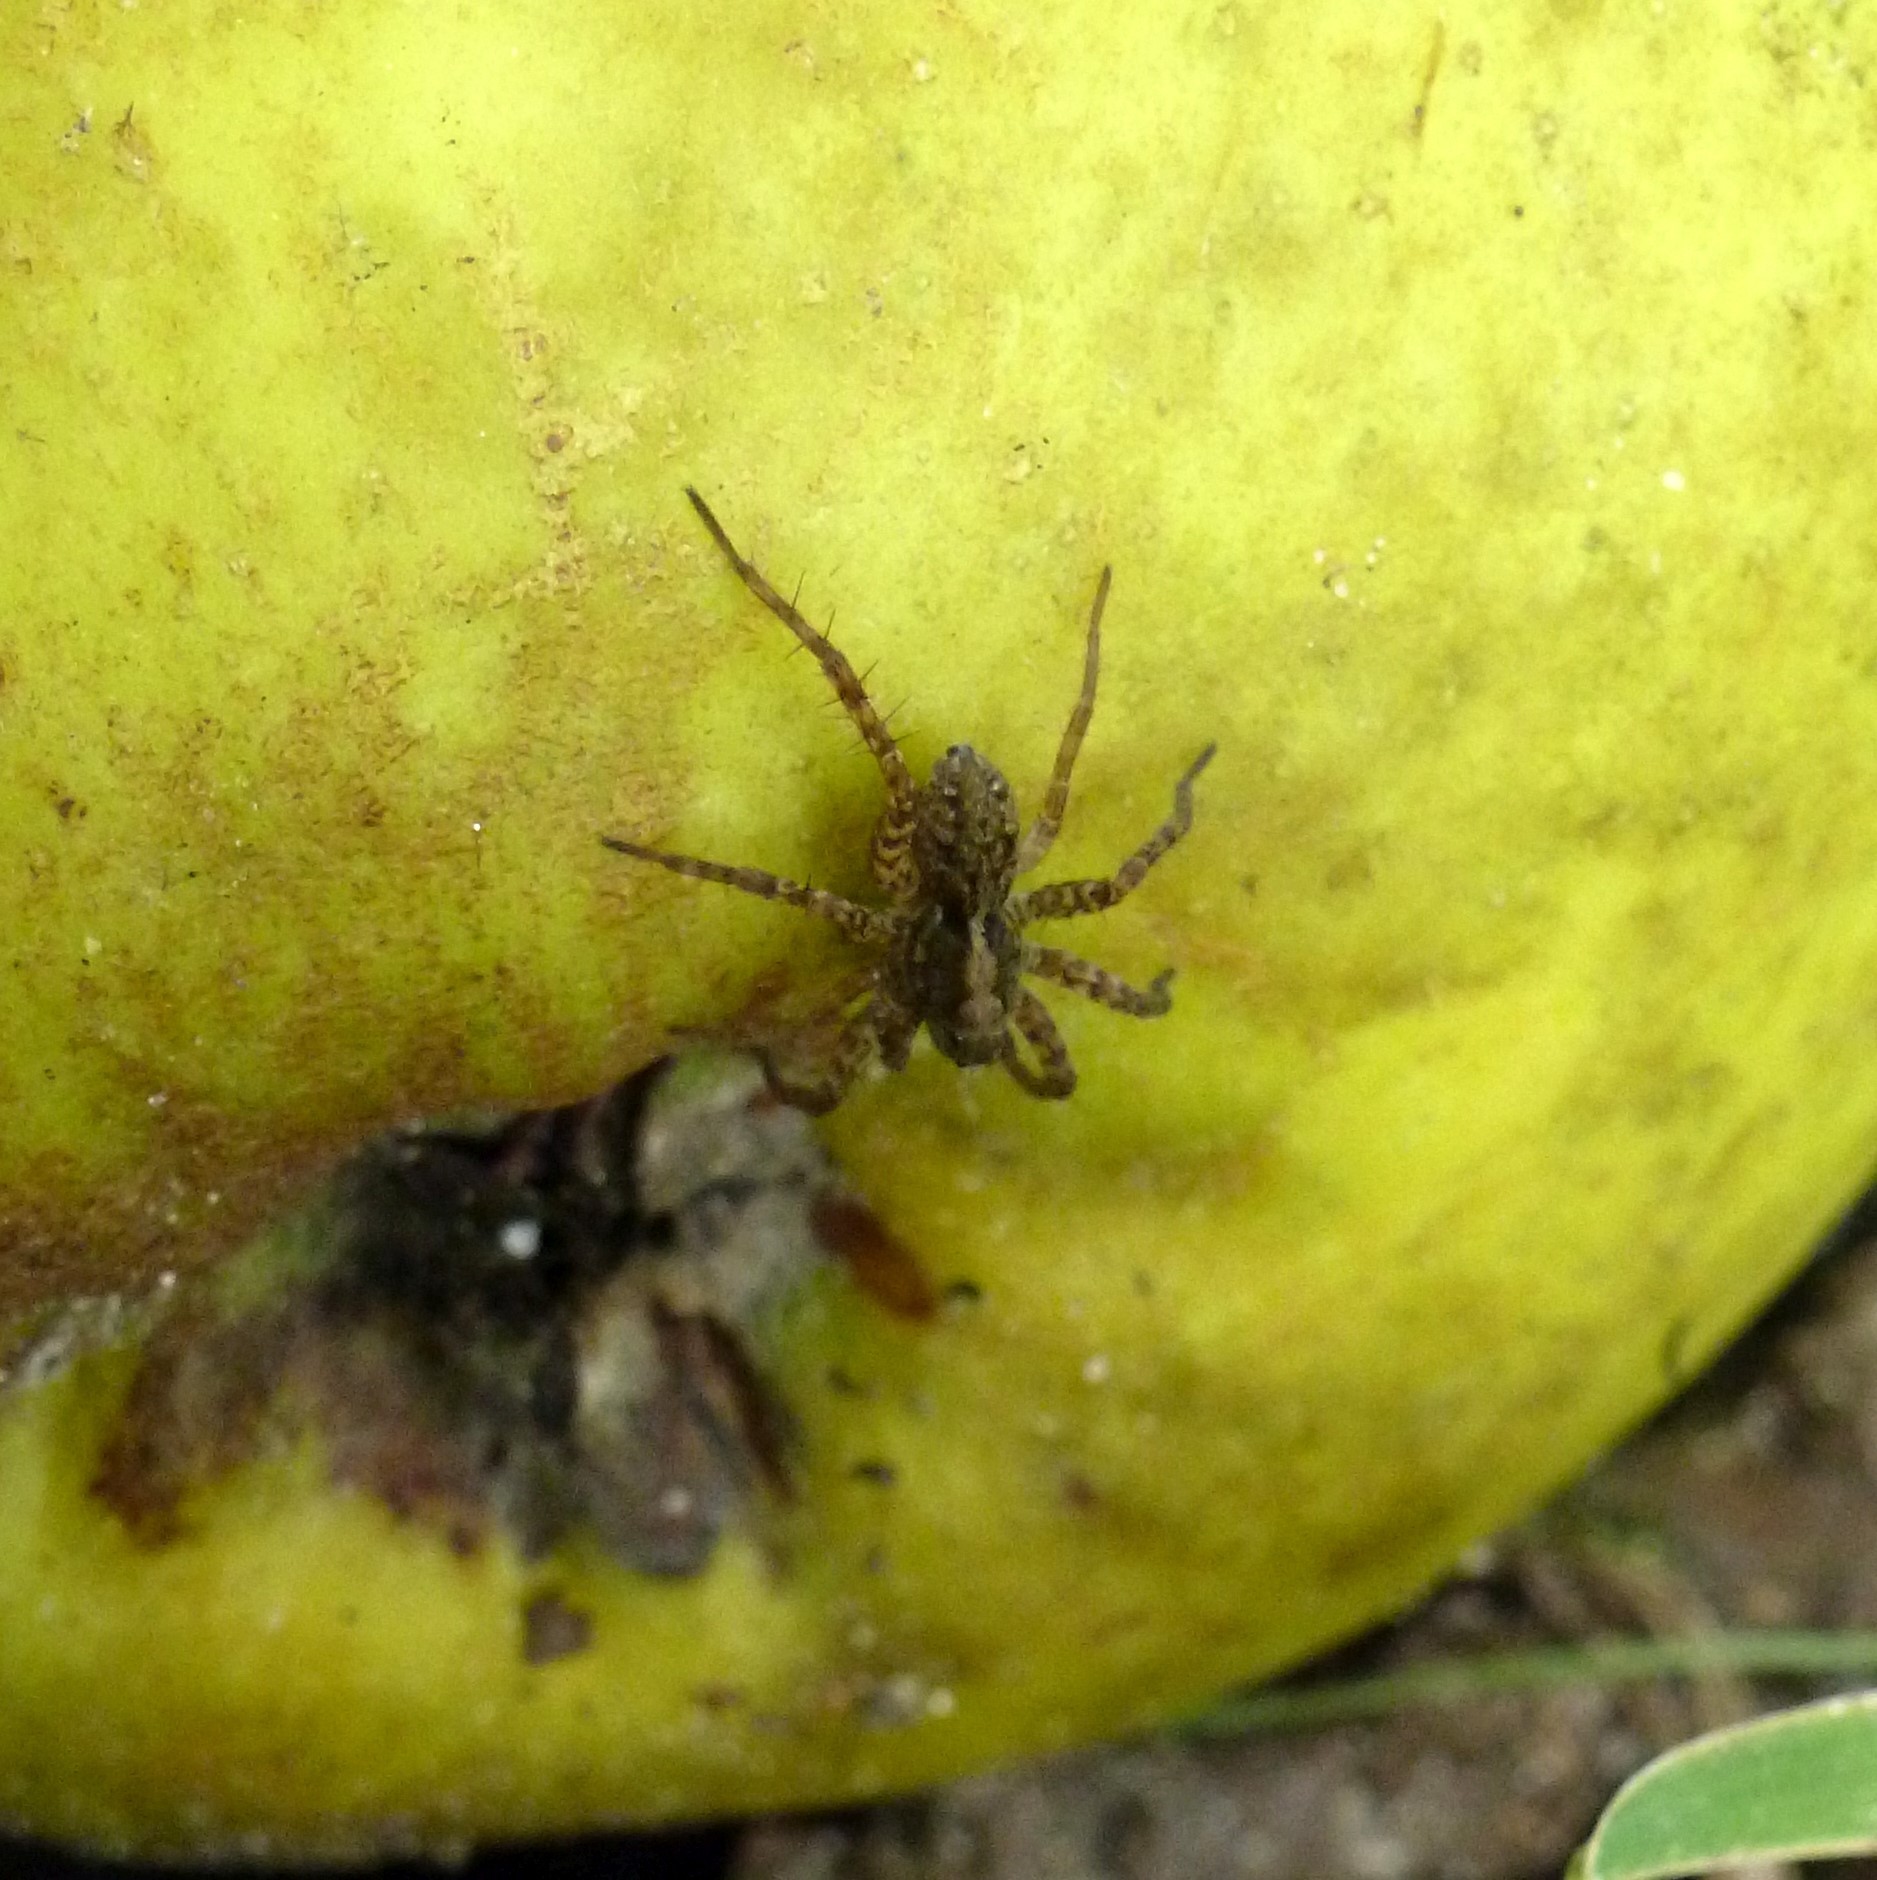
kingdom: Animalia
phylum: Arthropoda
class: Arachnida
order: Araneae
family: Lycosidae
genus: Pardosa
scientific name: Pardosa amentata
